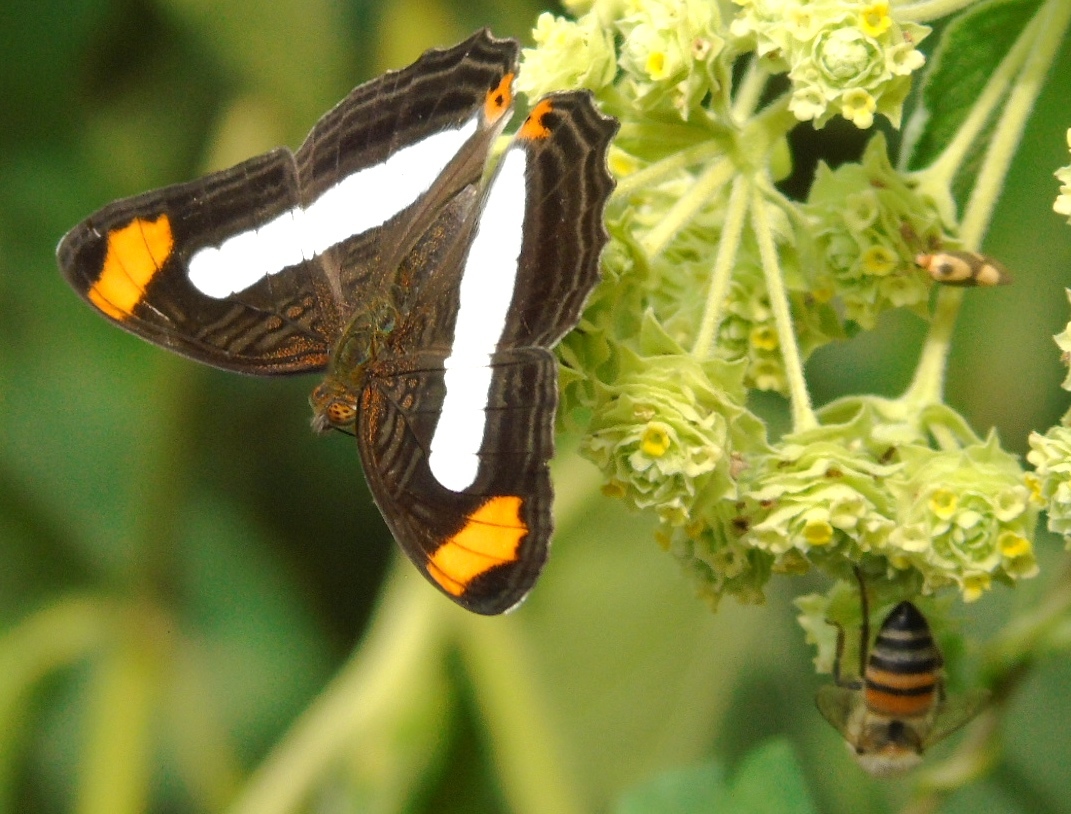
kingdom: Animalia
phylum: Arthropoda
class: Insecta
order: Lepidoptera
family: Nymphalidae
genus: Limenitis
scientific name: Limenitis iphiclus
